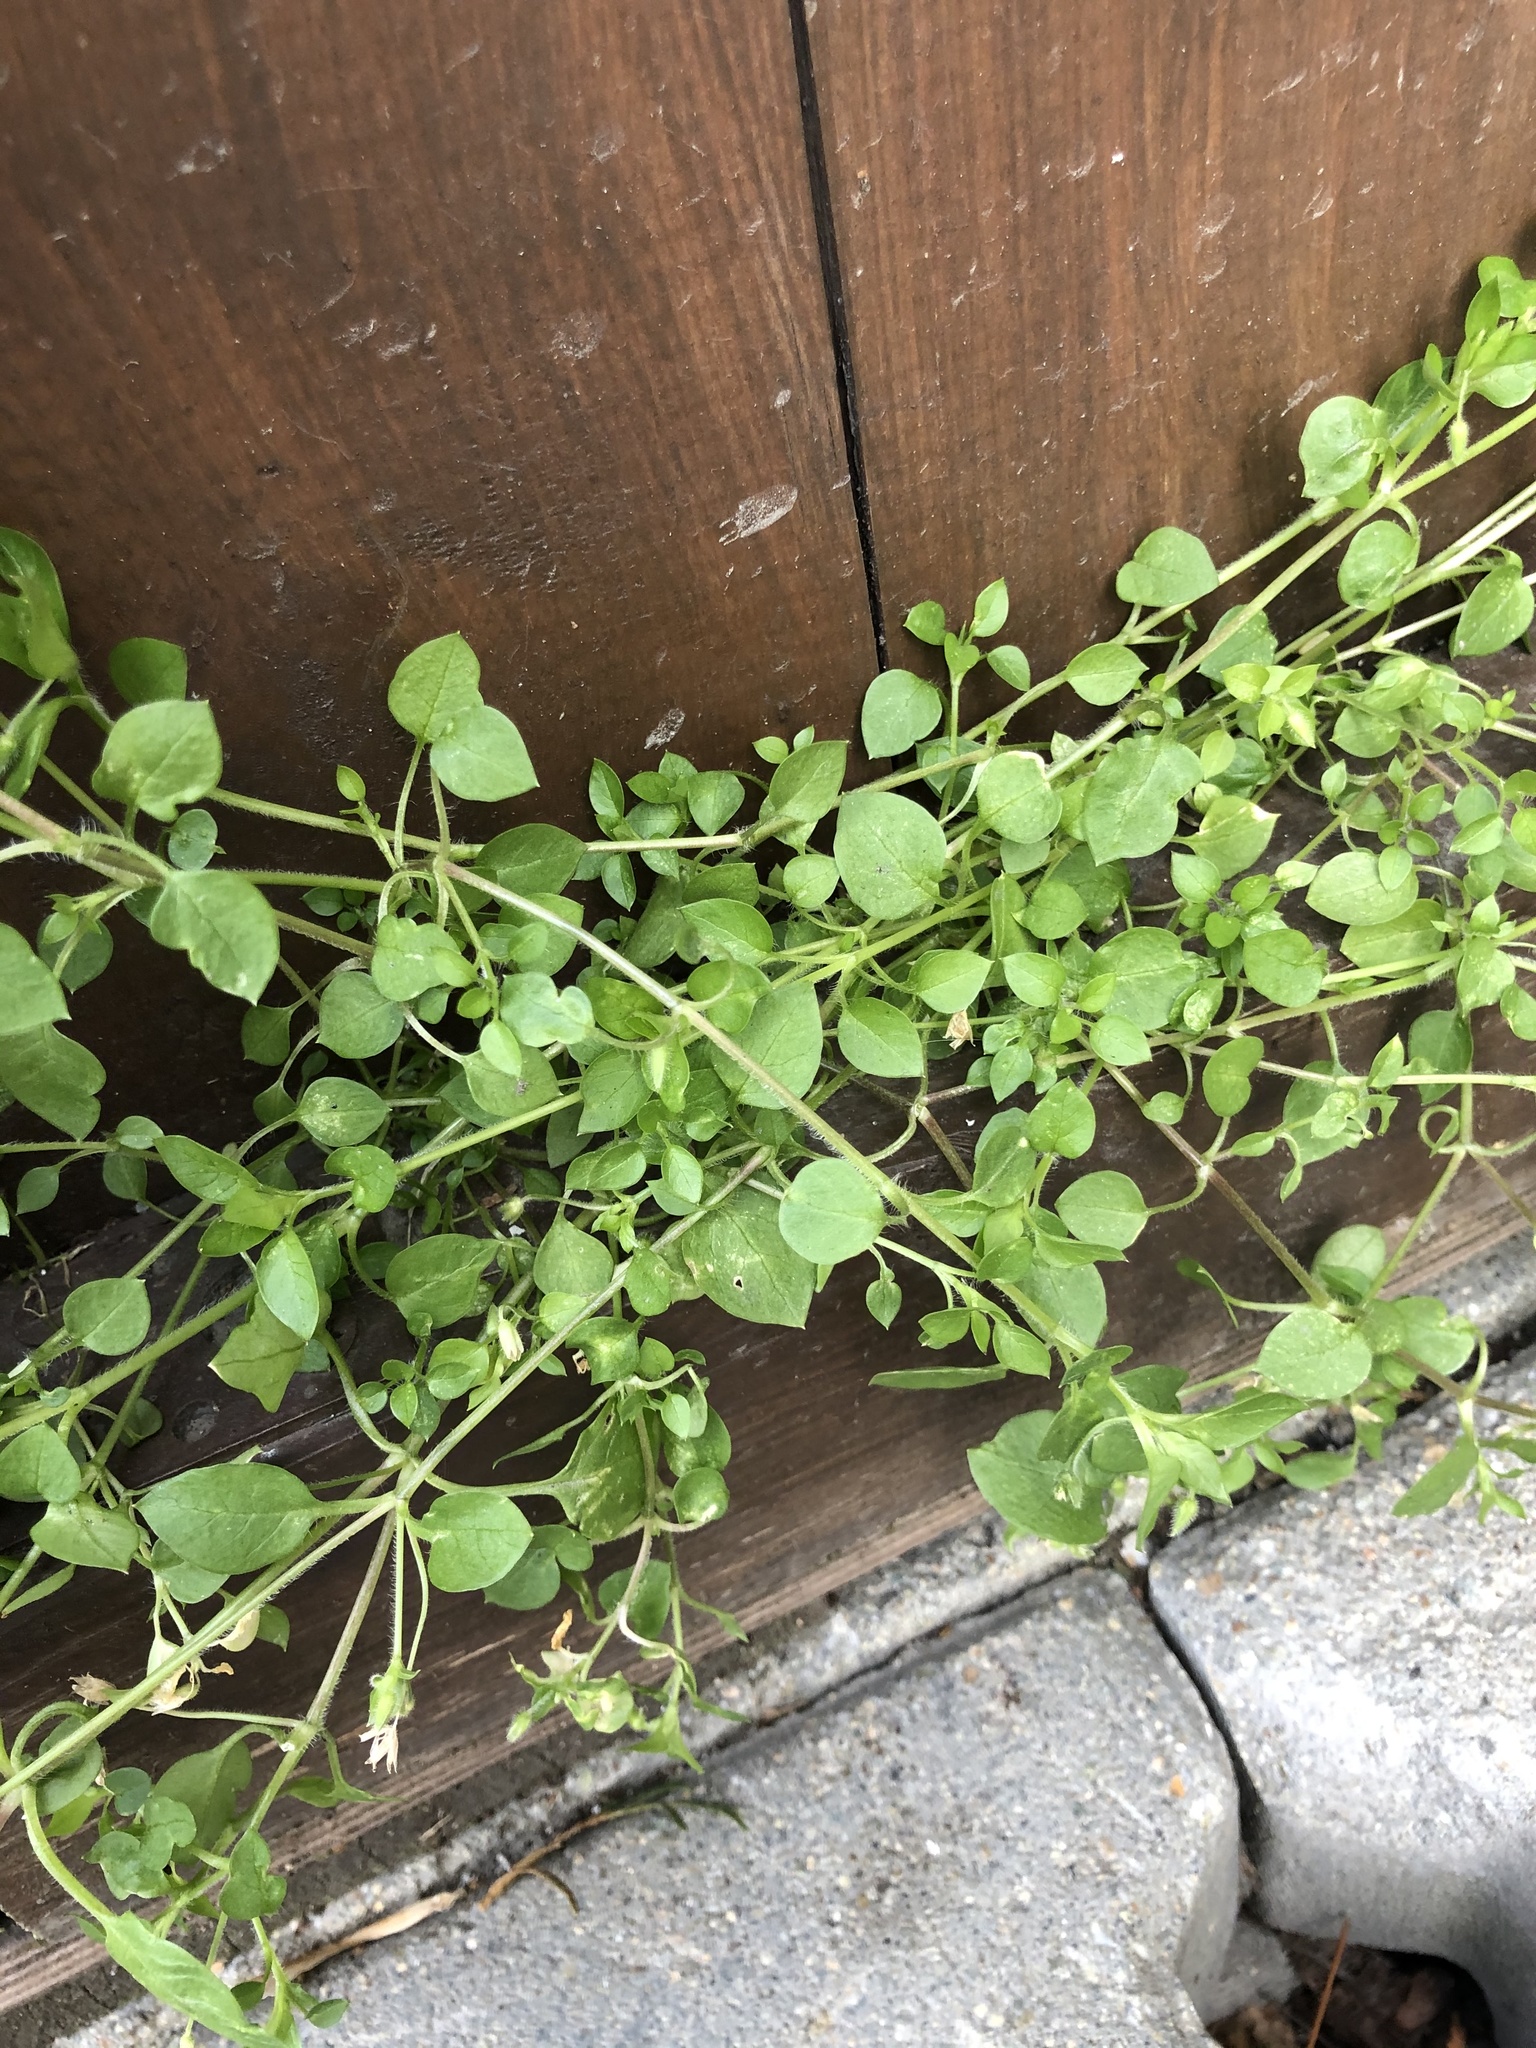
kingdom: Plantae
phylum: Tracheophyta
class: Magnoliopsida
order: Caryophyllales
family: Caryophyllaceae
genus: Stellaria
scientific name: Stellaria media
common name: Common chickweed
